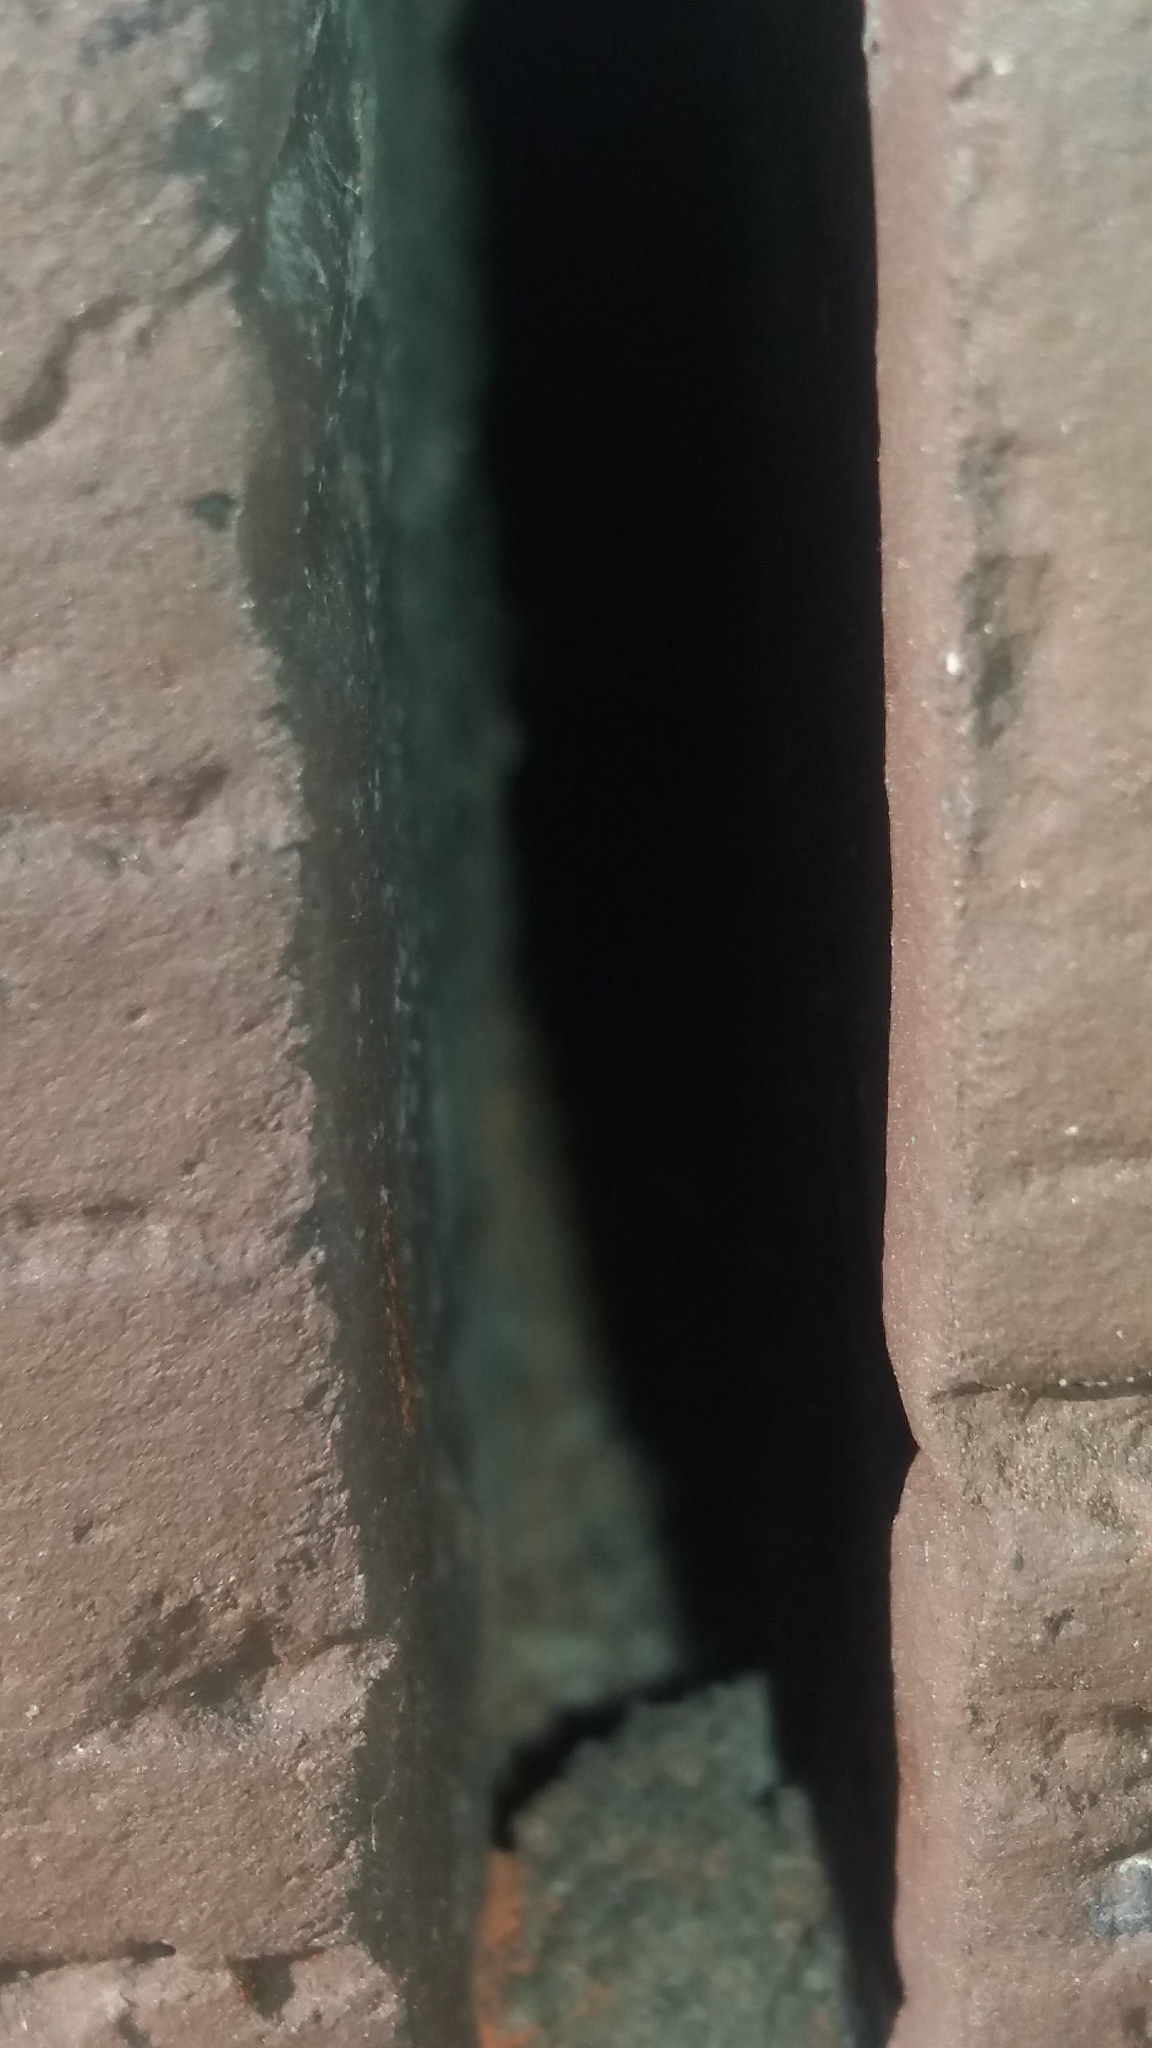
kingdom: Animalia
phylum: Arthropoda
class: Insecta
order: Hymenoptera
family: Vespidae
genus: Vespa
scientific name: Vespa crabro
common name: Hornet
